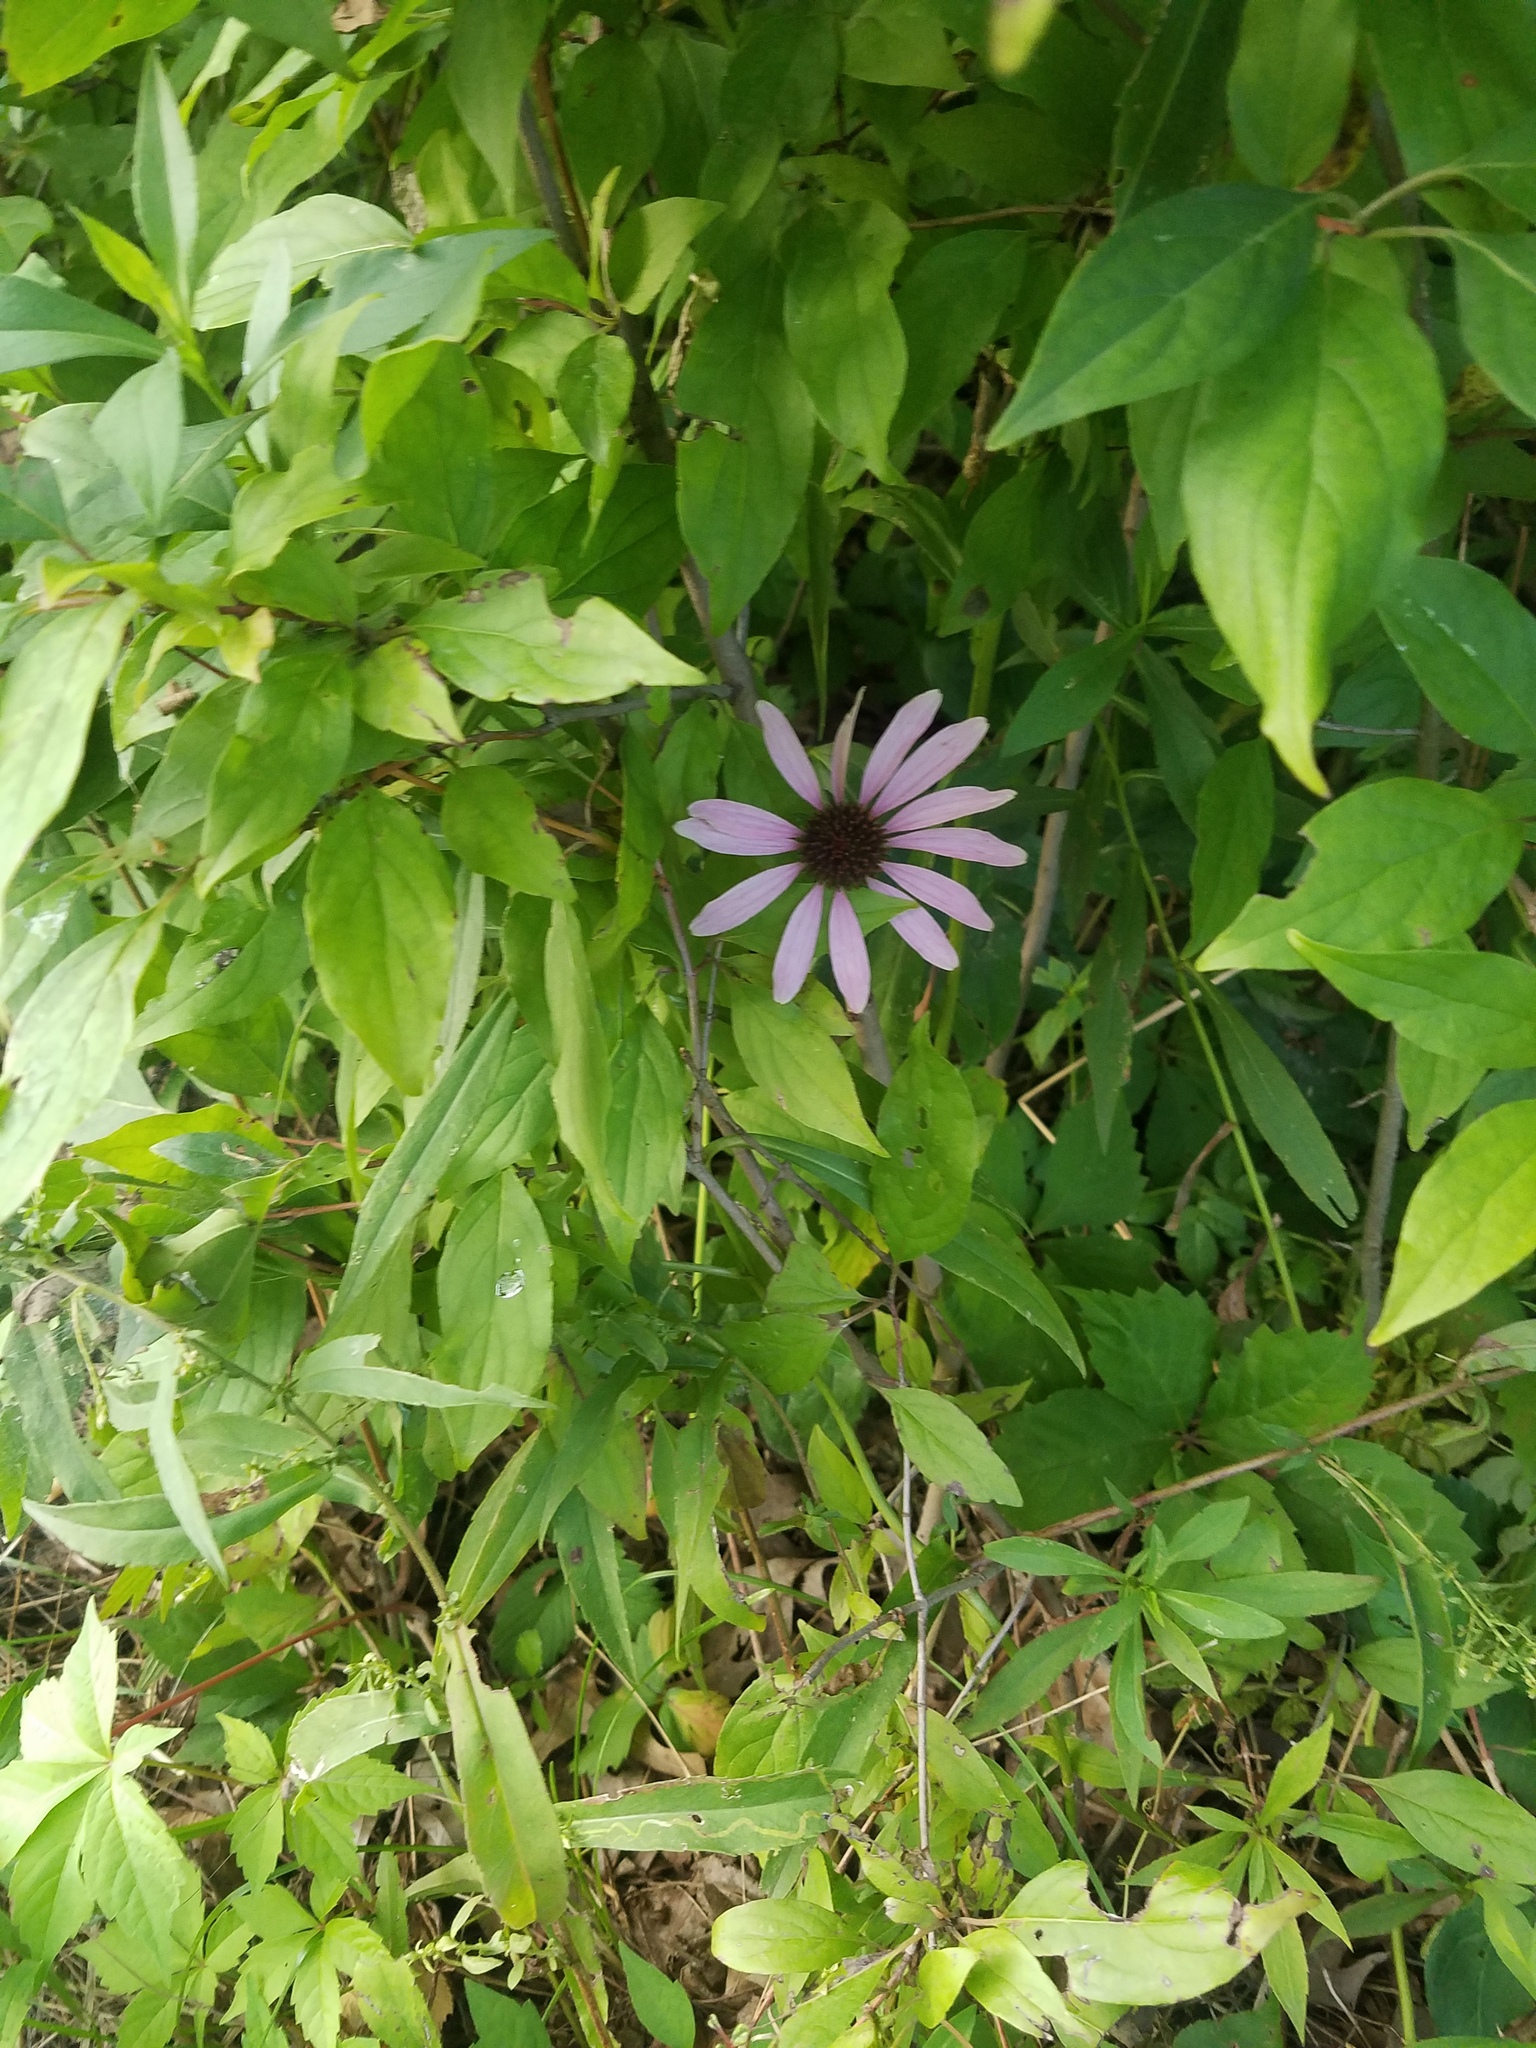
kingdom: Plantae
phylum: Tracheophyta
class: Magnoliopsida
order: Asterales
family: Asteraceae
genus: Echinacea
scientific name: Echinacea purpurea
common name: Broad-leaved purple coneflower
